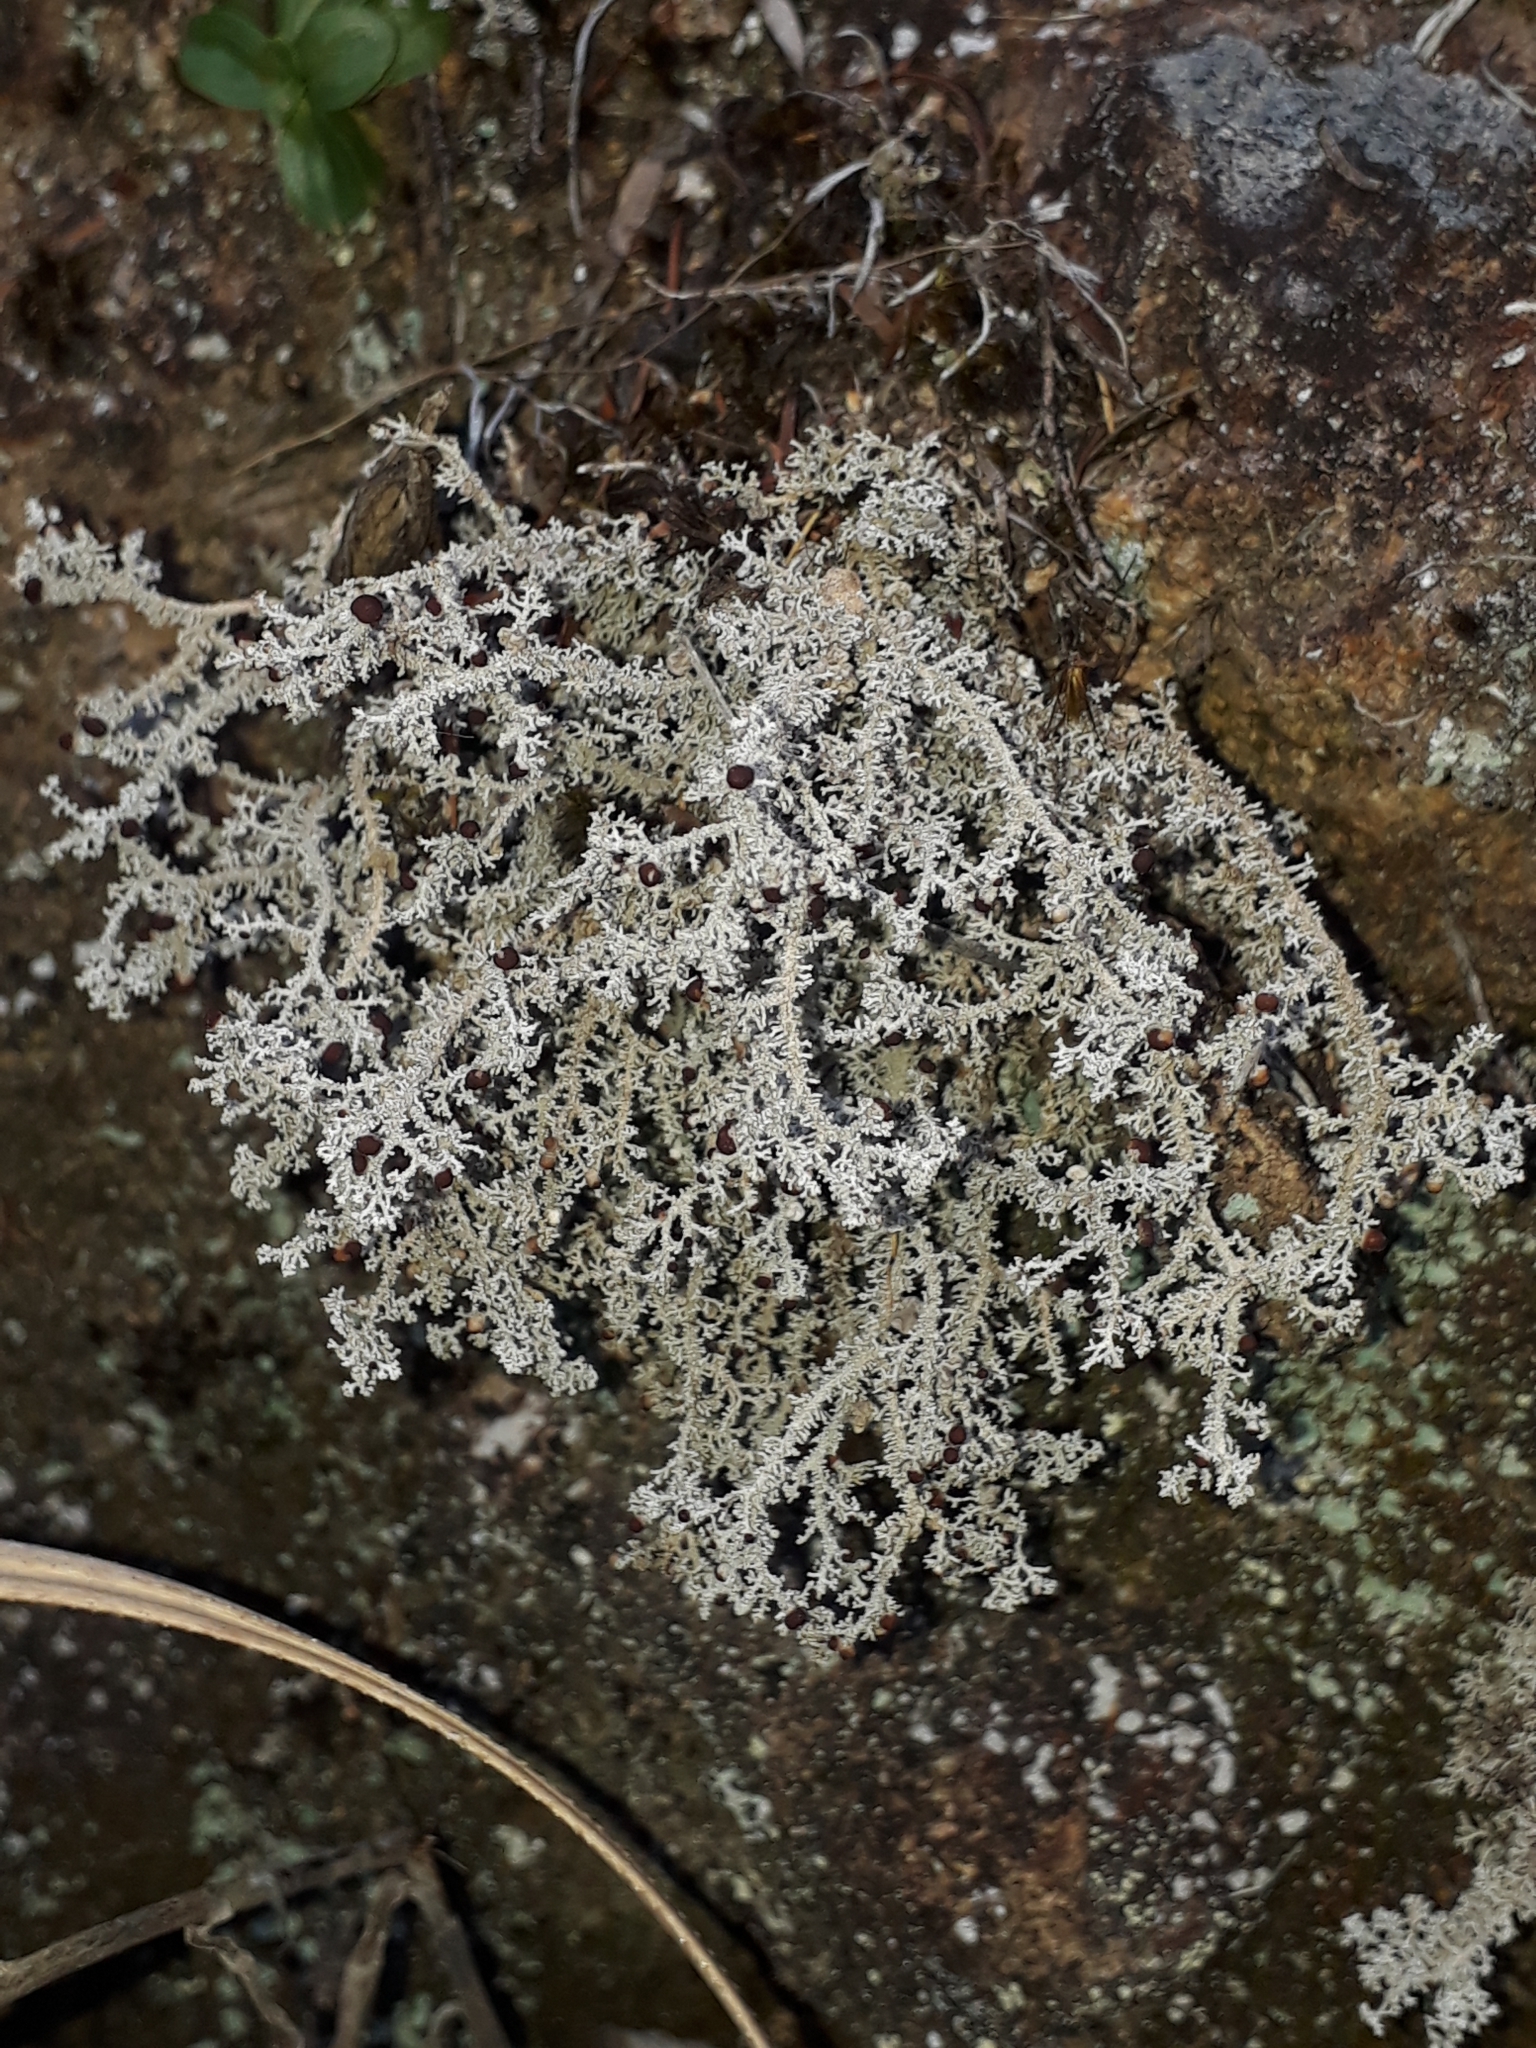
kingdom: Fungi
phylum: Ascomycota
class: Lecanoromycetes
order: Lecanorales
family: Stereocaulaceae
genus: Stereocaulon
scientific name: Stereocaulon ramulosum
